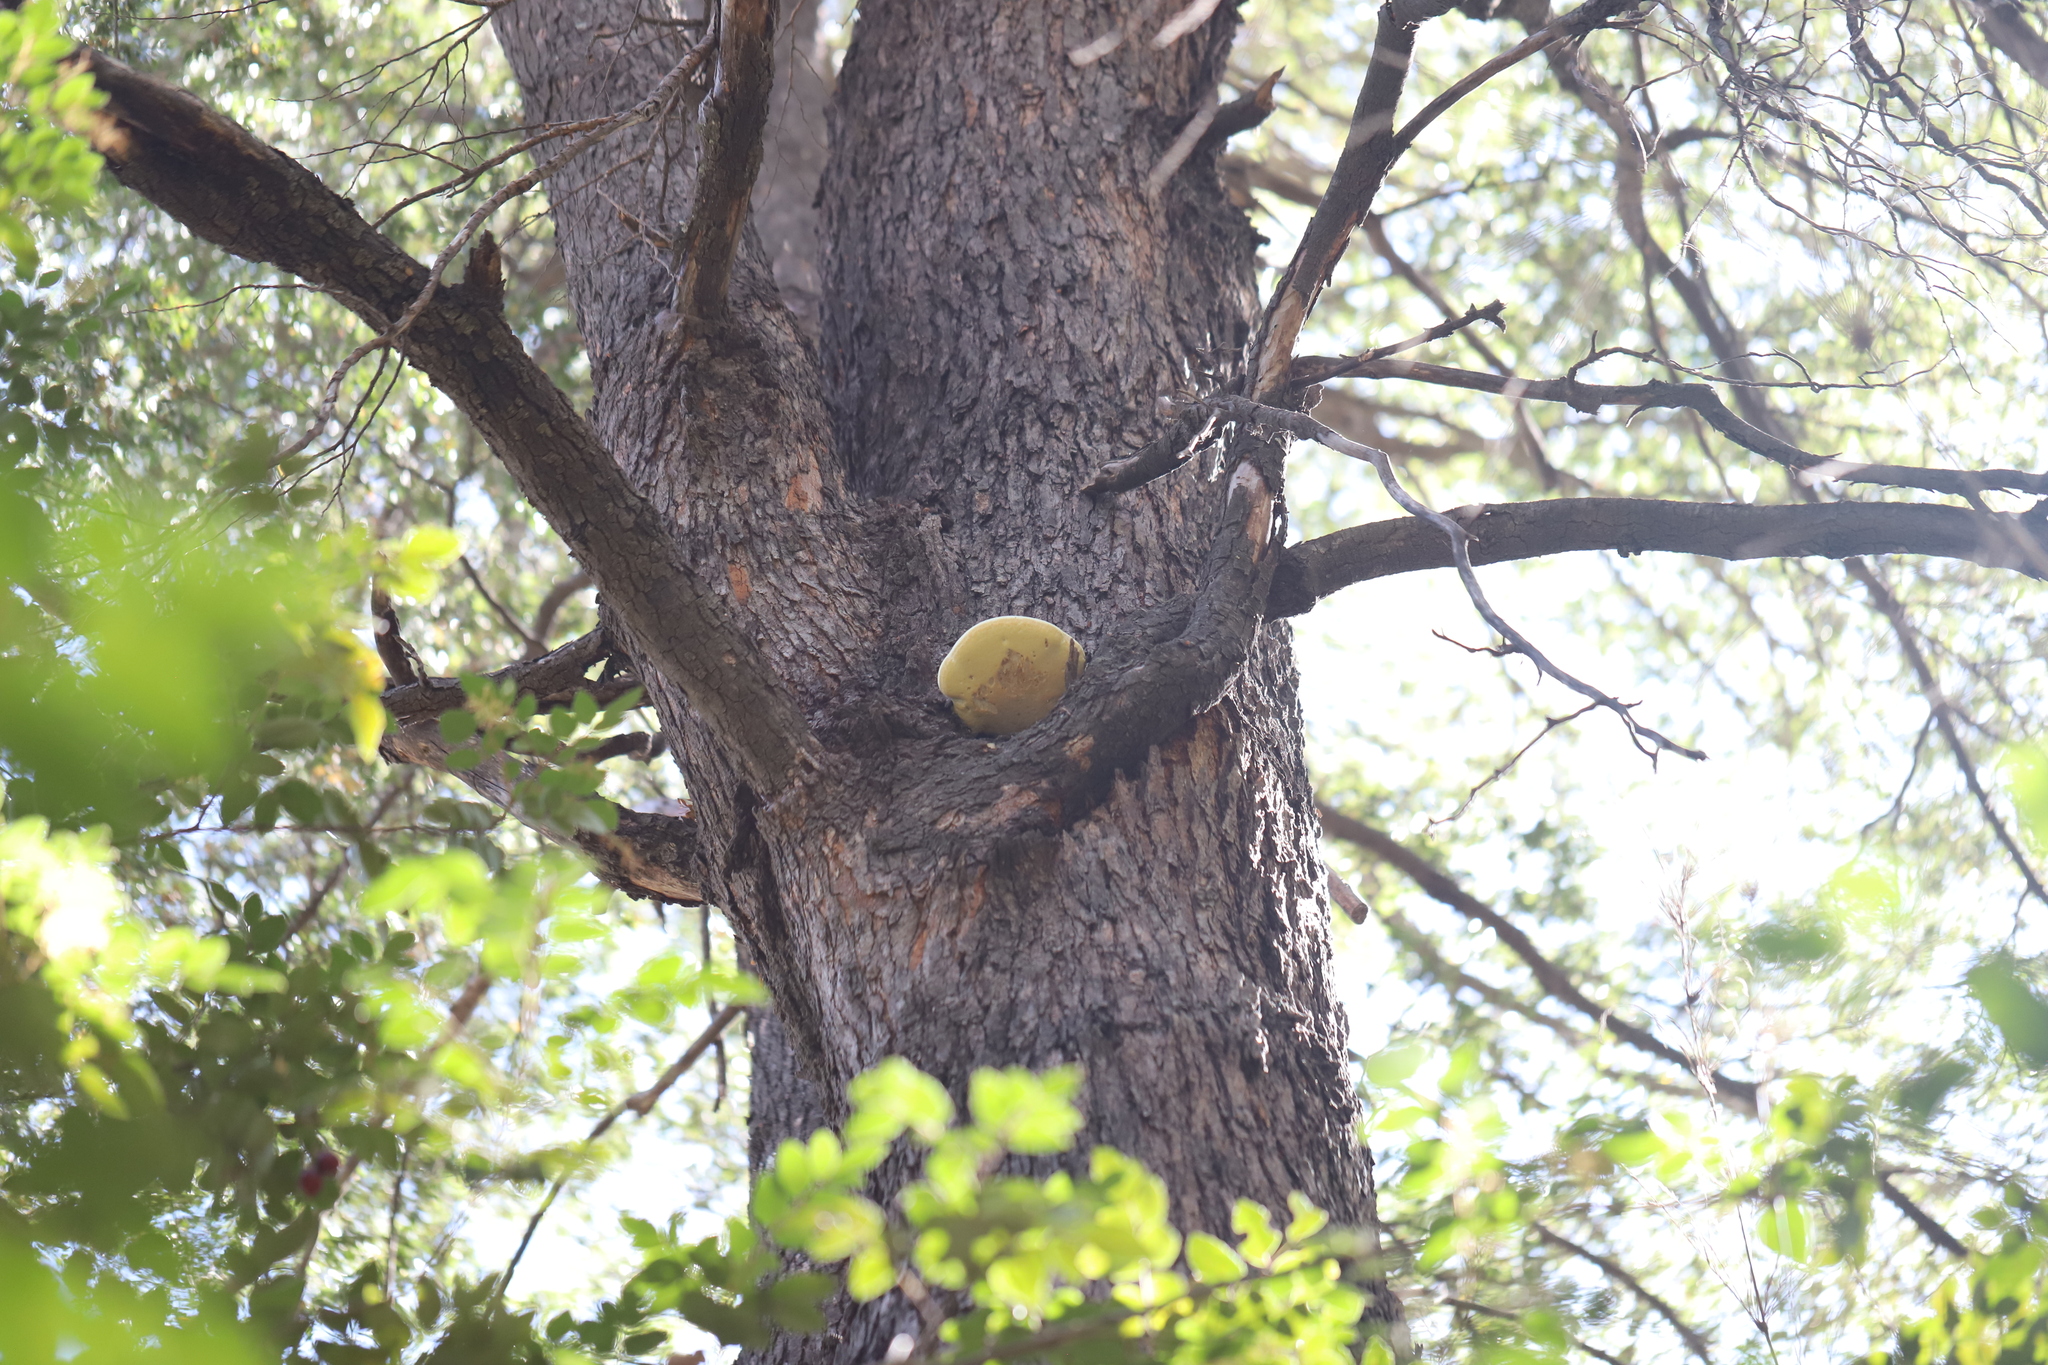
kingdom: Fungi
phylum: Basidiomycota
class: Agaricomycetes
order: Polyporales
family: Laetiporaceae
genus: Laetiporus
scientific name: Laetiporus portentosus
